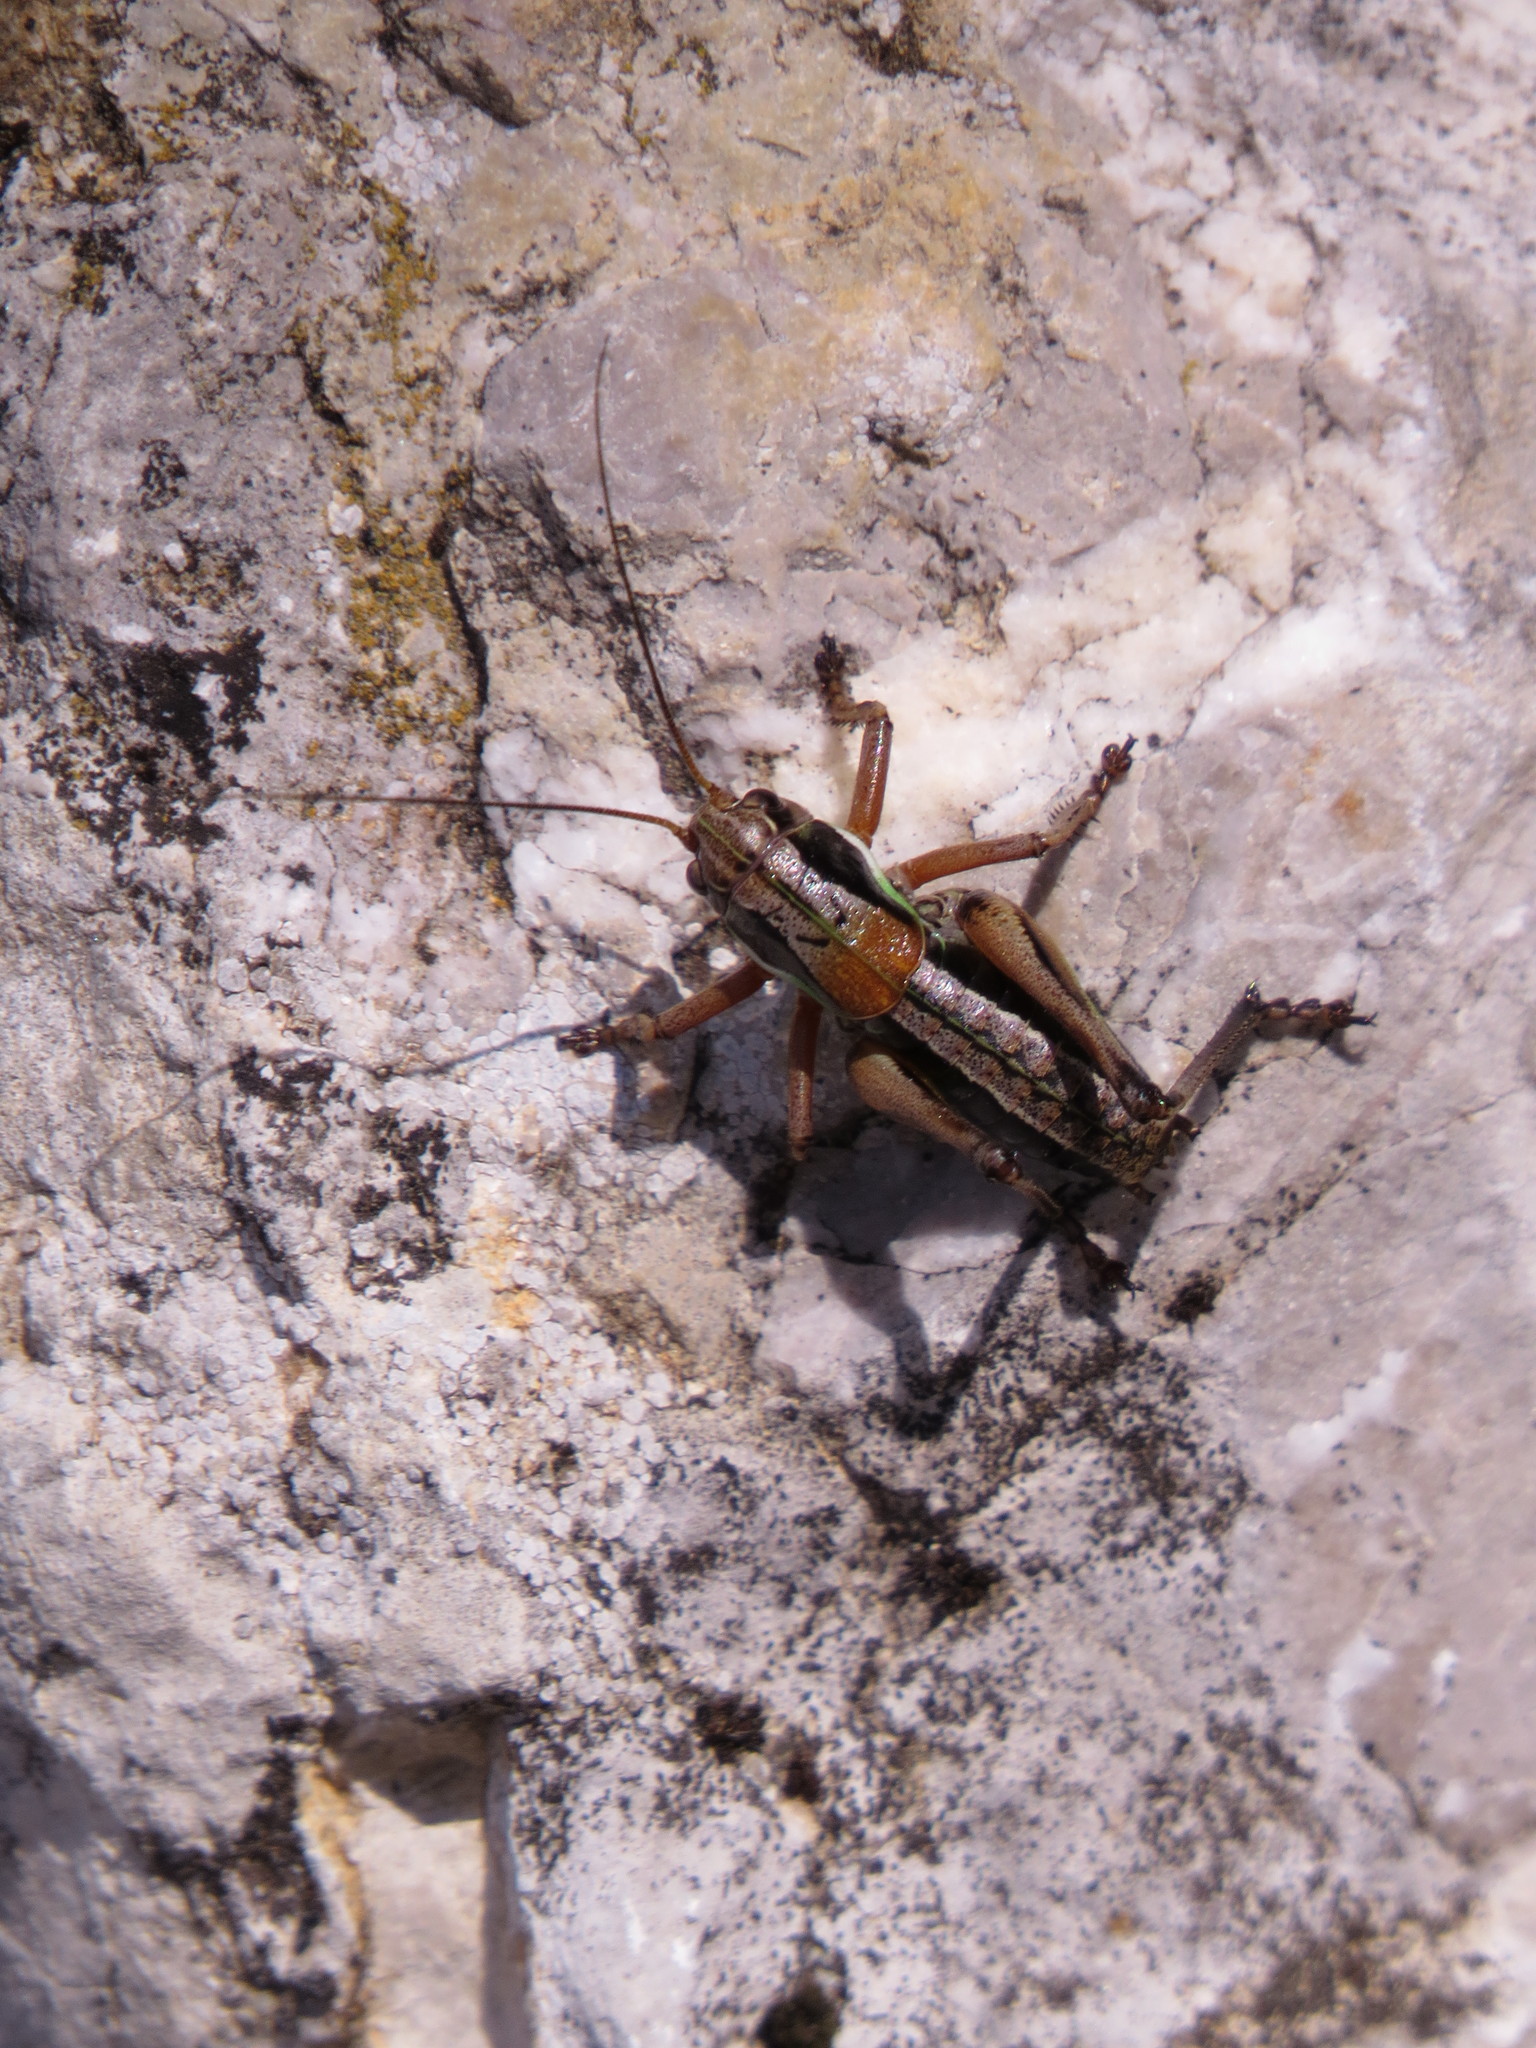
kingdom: Animalia
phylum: Arthropoda
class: Insecta
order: Orthoptera
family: Tettigoniidae
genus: Anonconotus
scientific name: Anonconotus ghilianii
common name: Ghiliani's alpine bush-cricket
